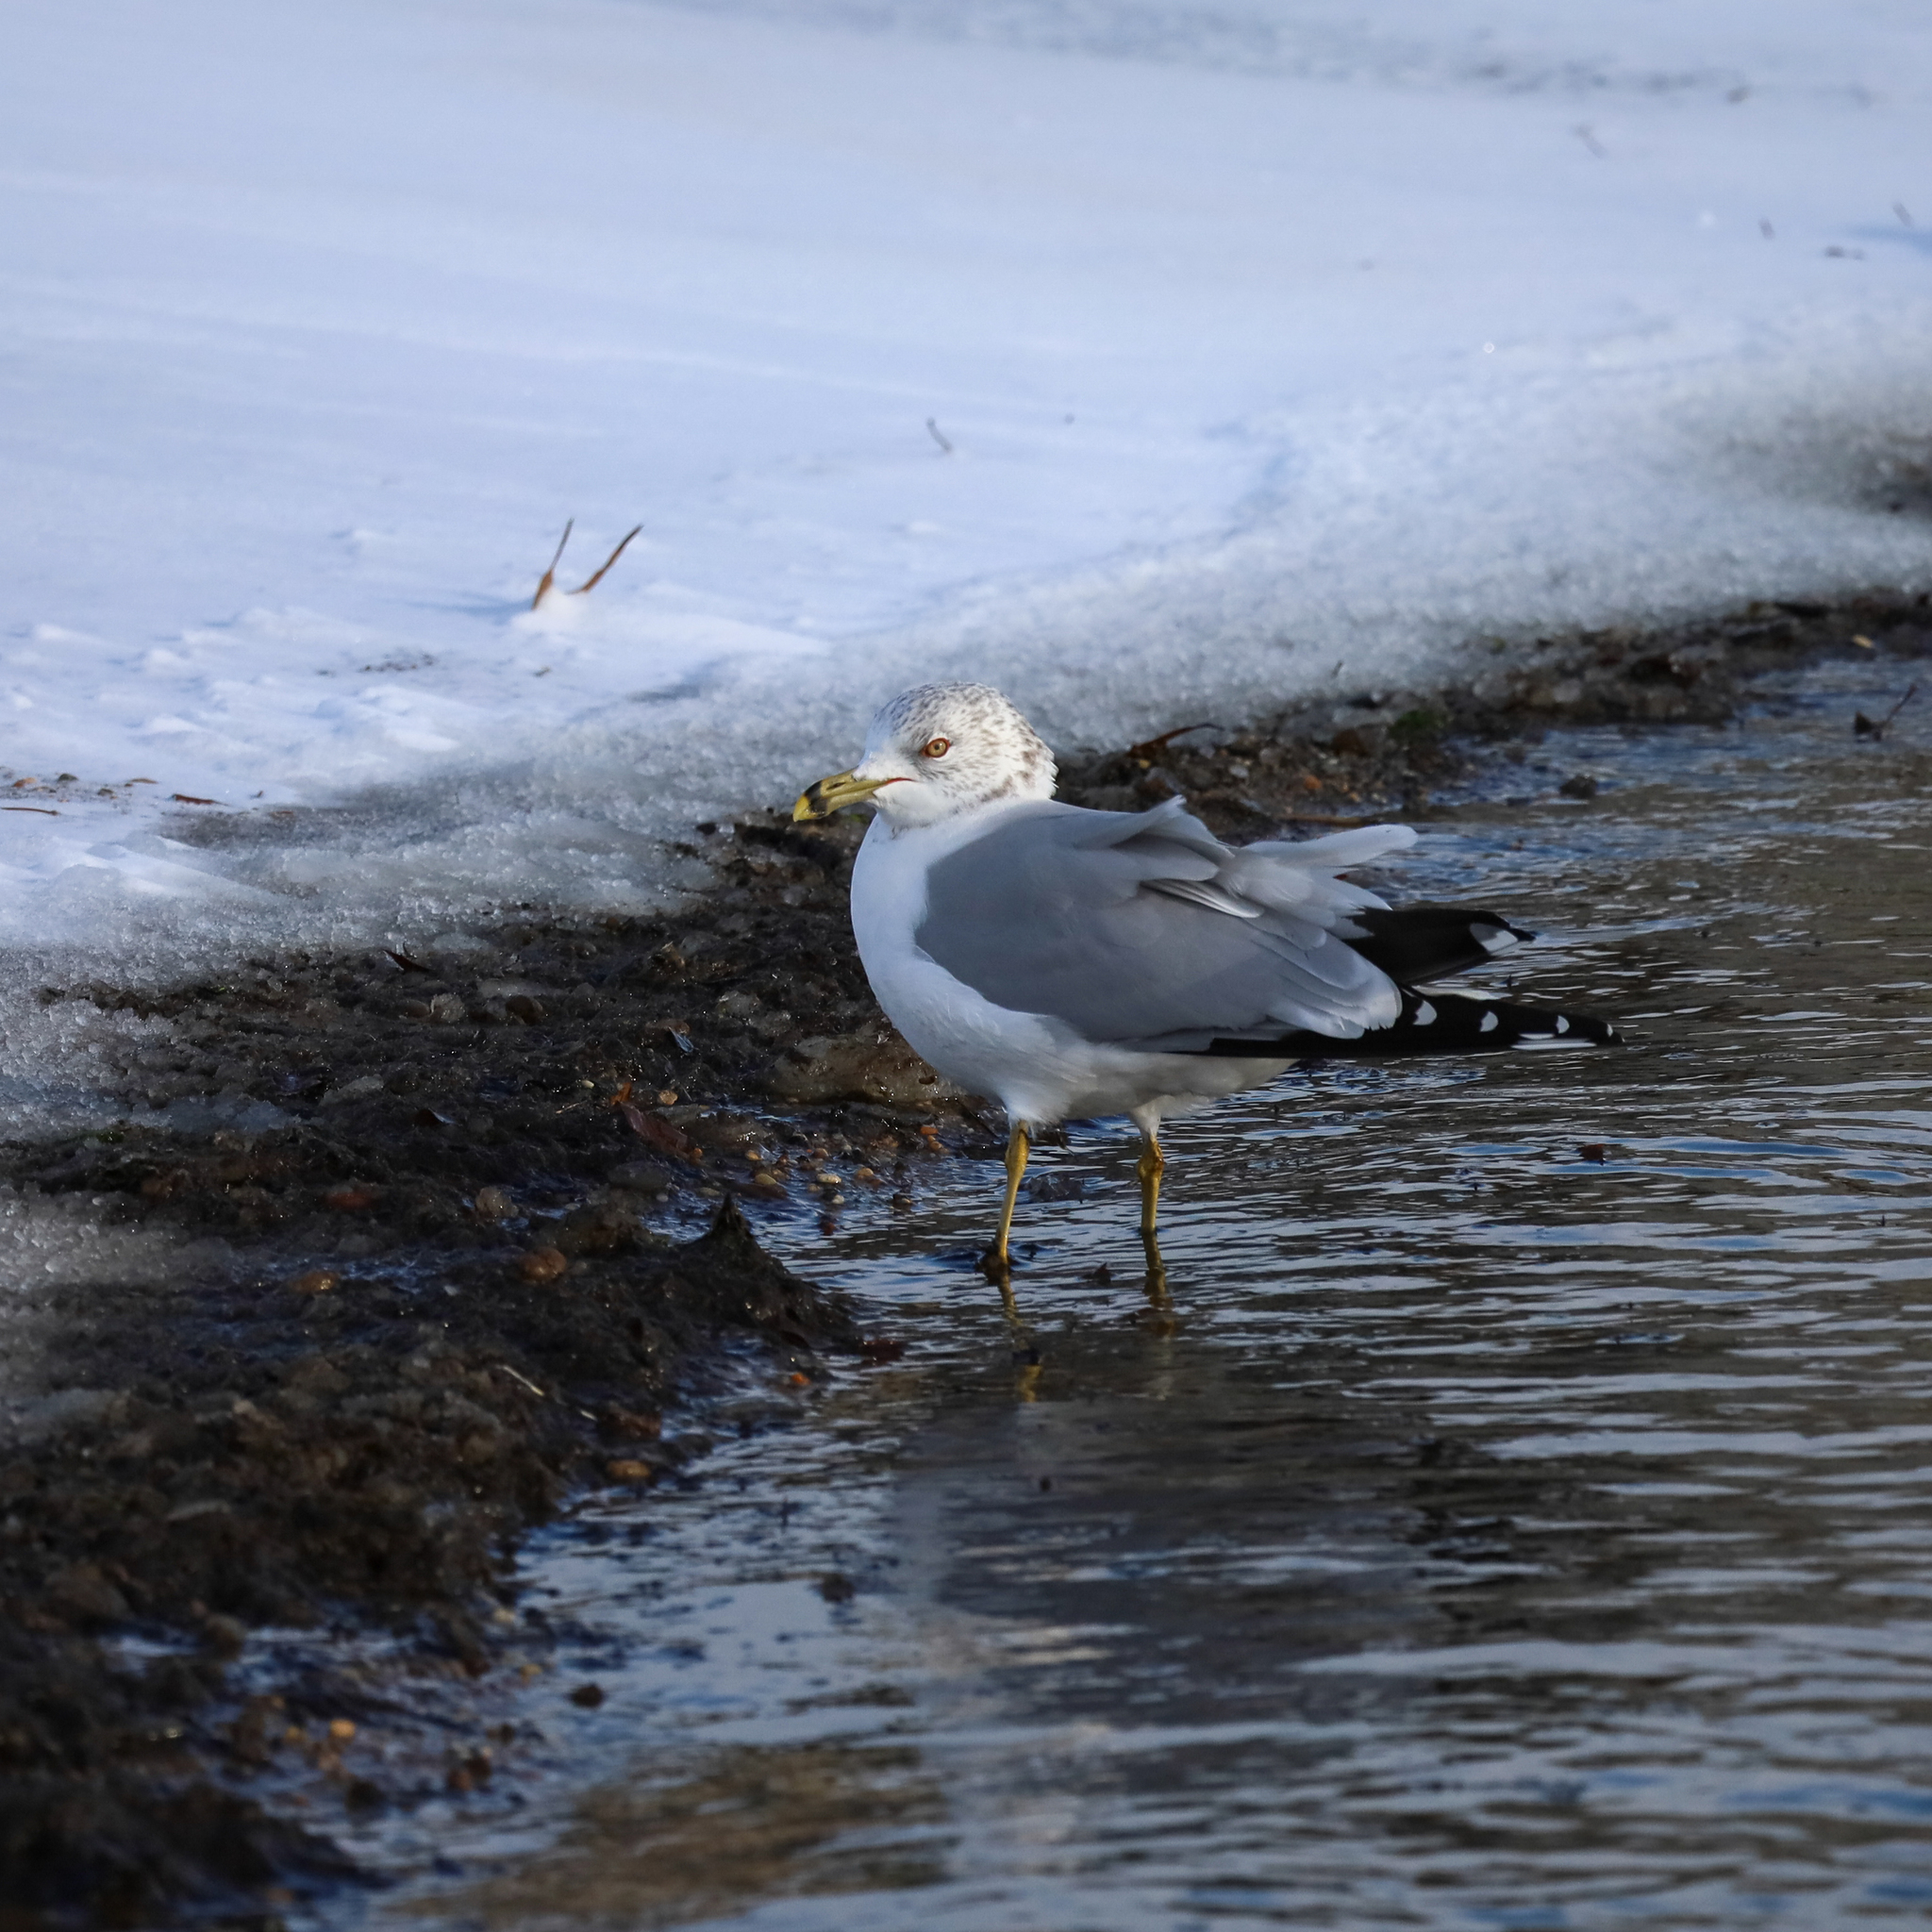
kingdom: Animalia
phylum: Chordata
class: Aves
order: Charadriiformes
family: Laridae
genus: Larus
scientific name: Larus delawarensis
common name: Ring-billed gull
